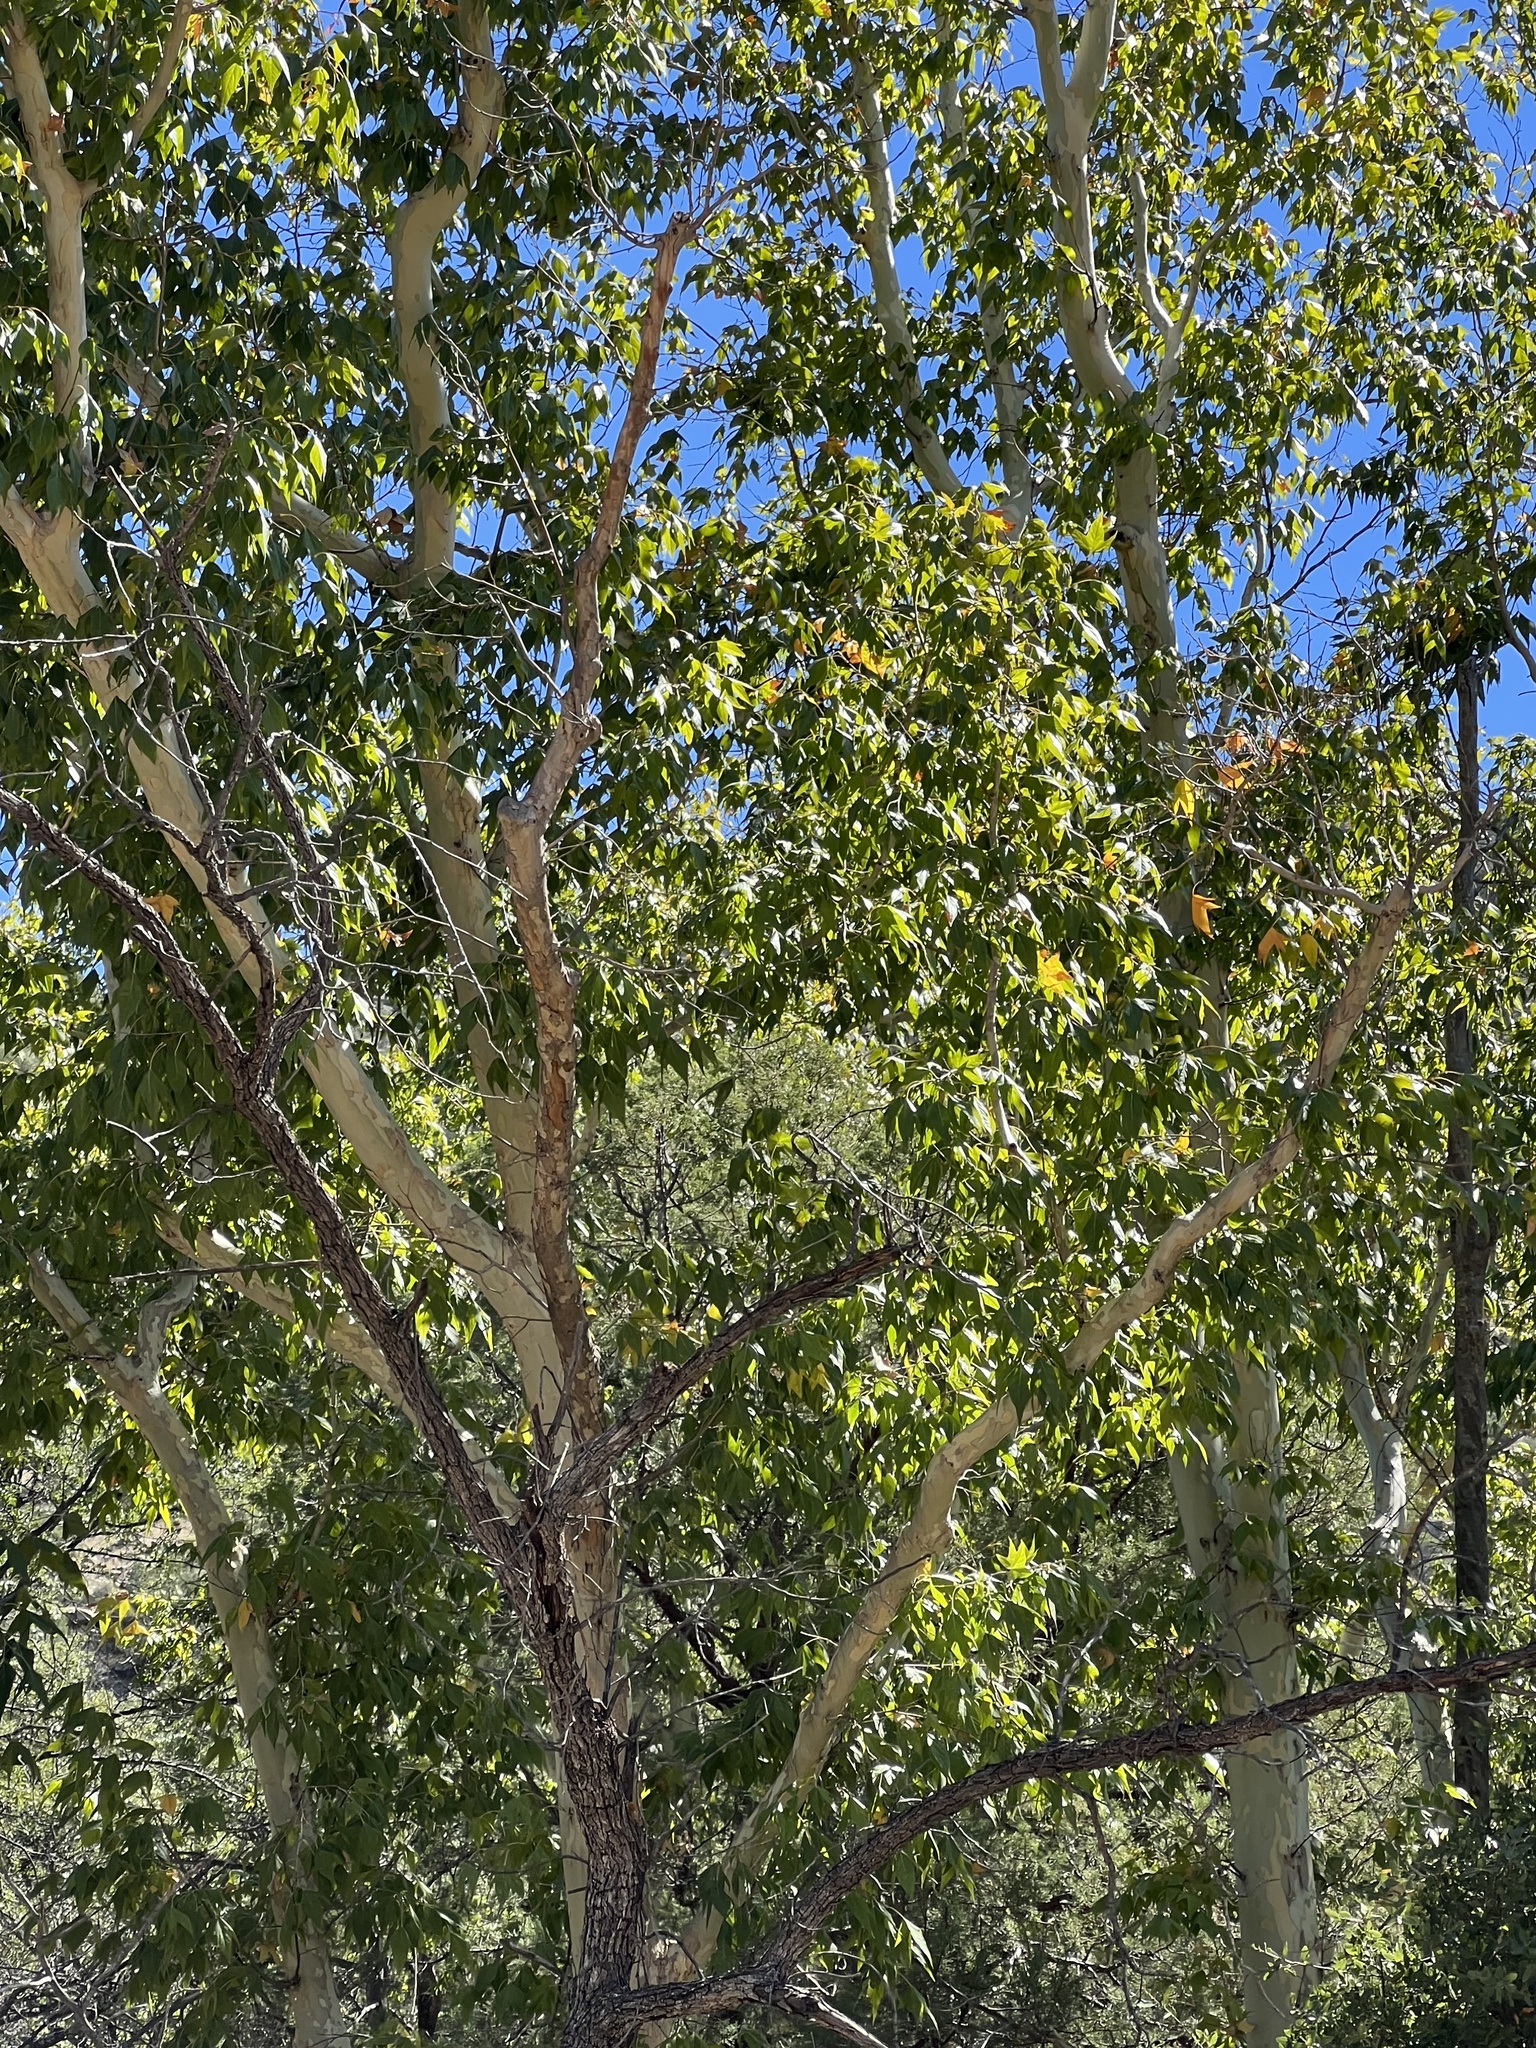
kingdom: Plantae
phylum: Tracheophyta
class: Magnoliopsida
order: Proteales
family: Platanaceae
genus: Platanus
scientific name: Platanus wrightii
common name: Arizona sycamore
